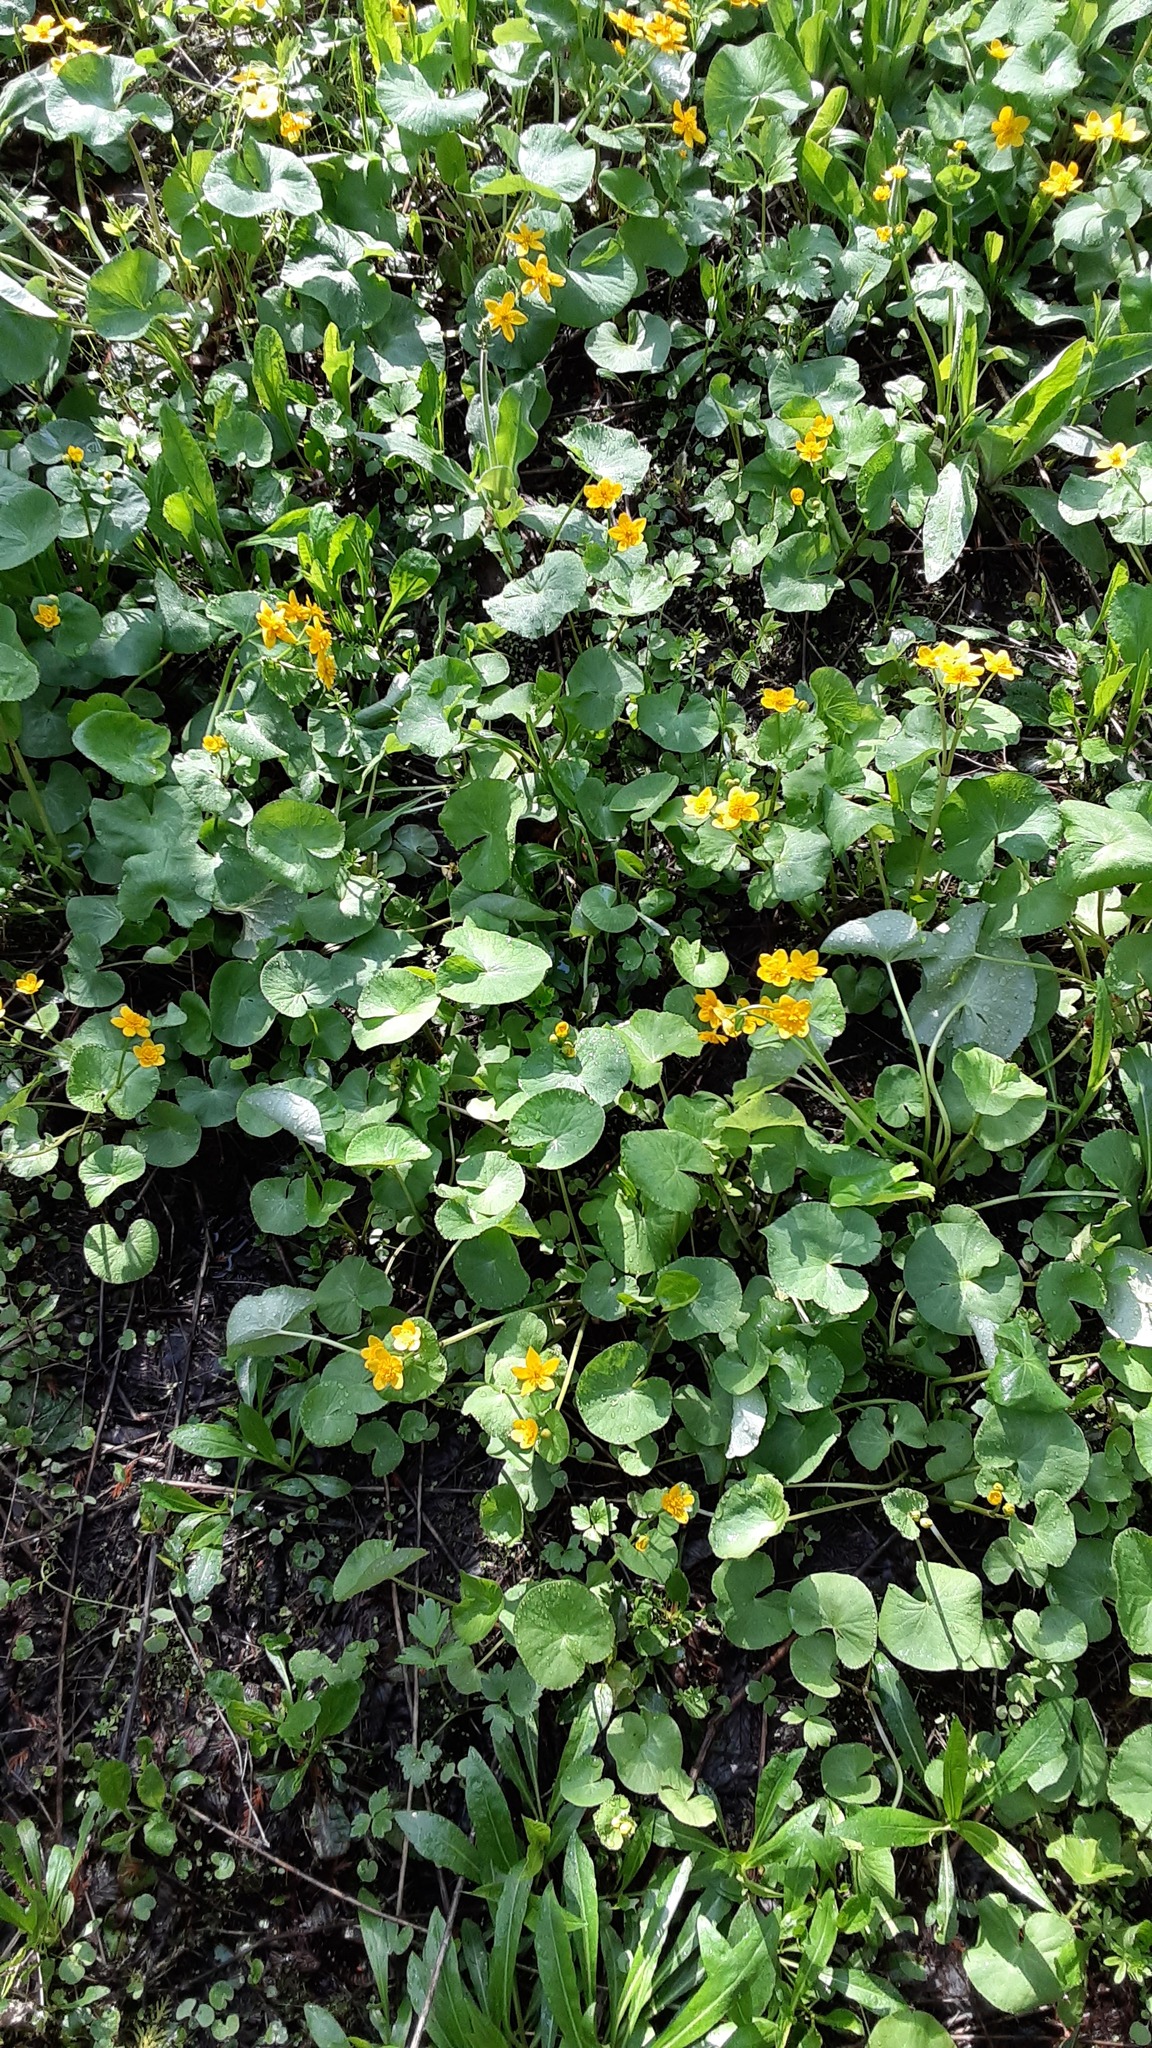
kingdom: Plantae
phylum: Tracheophyta
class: Magnoliopsida
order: Ranunculales
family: Ranunculaceae
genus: Caltha
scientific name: Caltha palustris
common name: Marsh marigold
